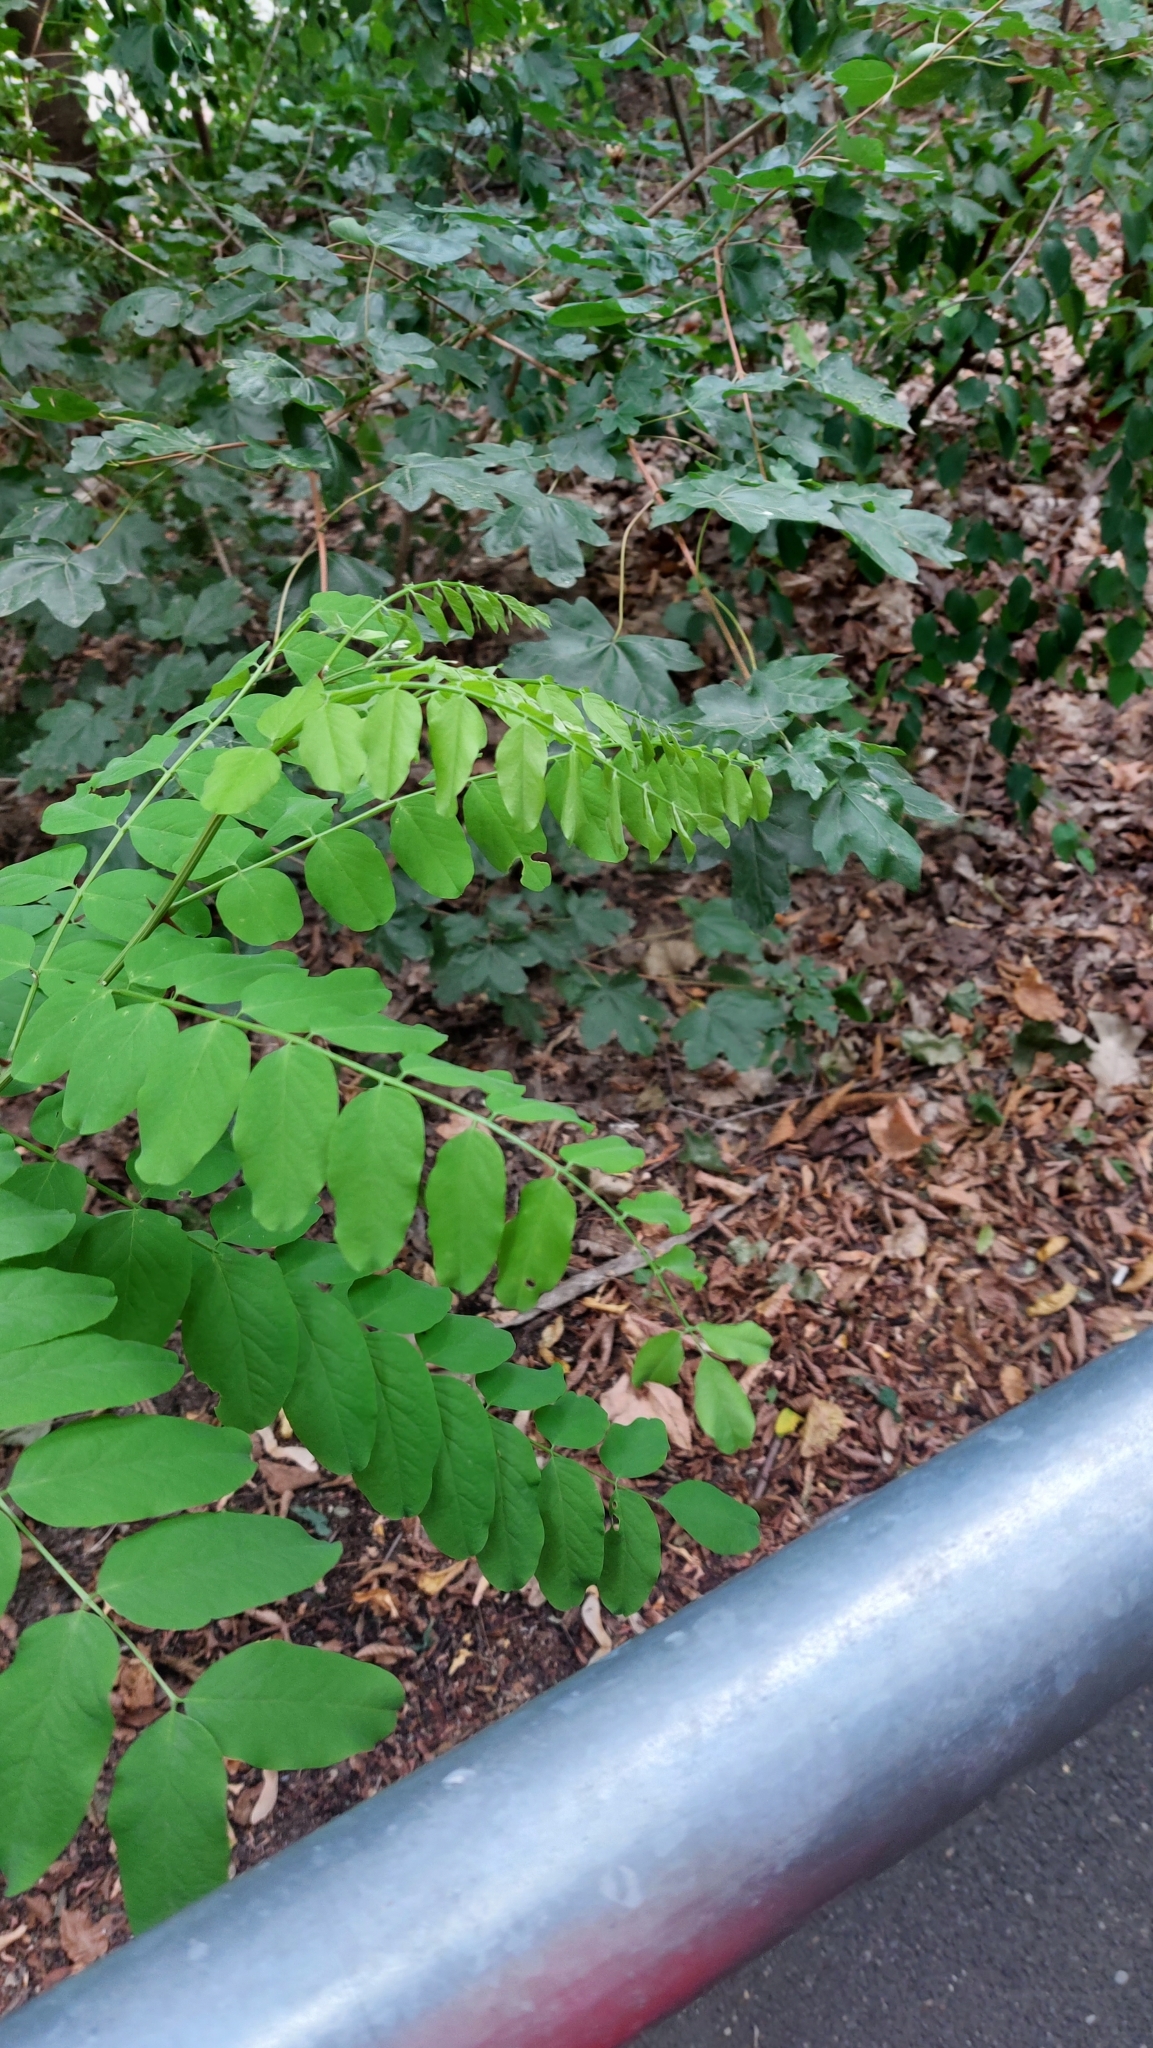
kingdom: Plantae
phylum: Tracheophyta
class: Magnoliopsida
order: Fabales
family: Fabaceae
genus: Robinia
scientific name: Robinia pseudoacacia
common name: Black locust
